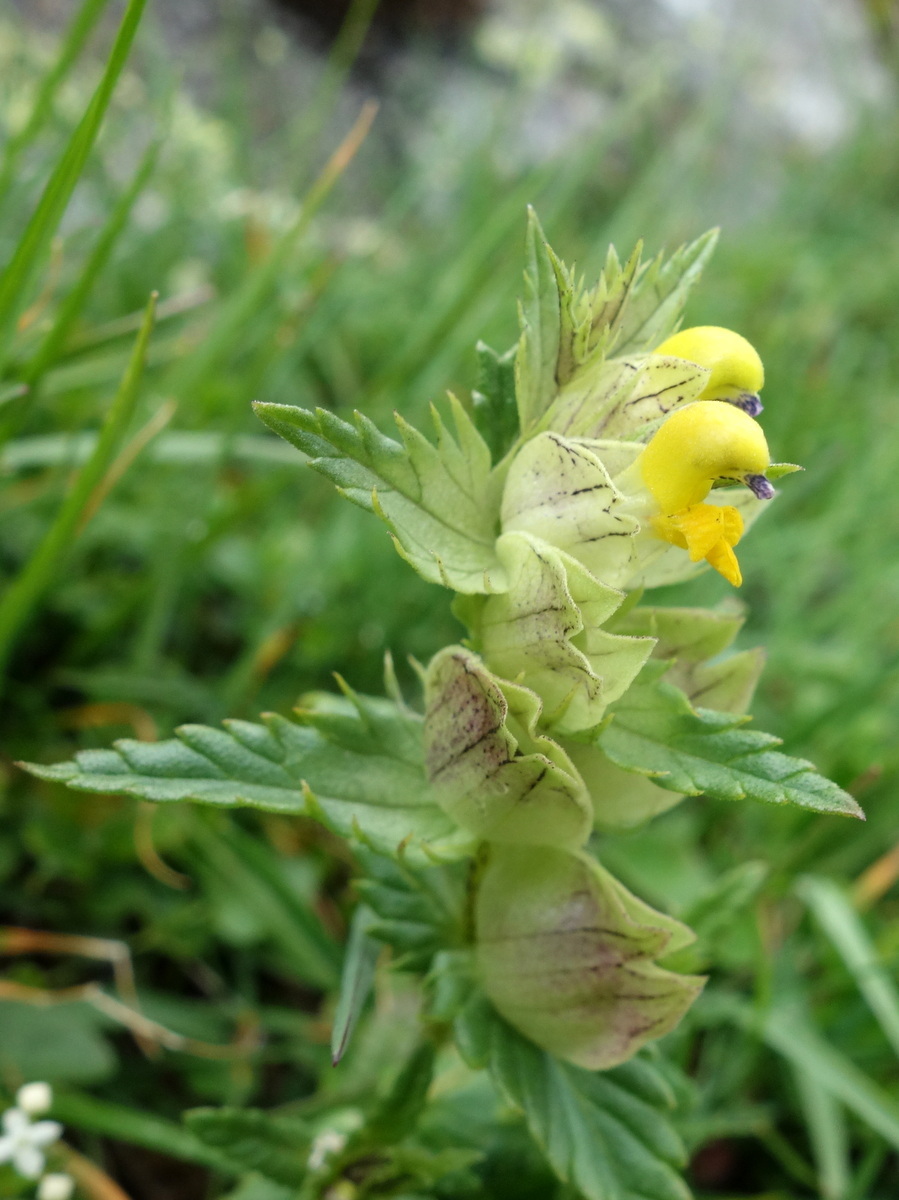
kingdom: Plantae
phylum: Tracheophyta
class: Magnoliopsida
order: Lamiales
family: Orobanchaceae
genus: Rhinanthus
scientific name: Rhinanthus glacialis
